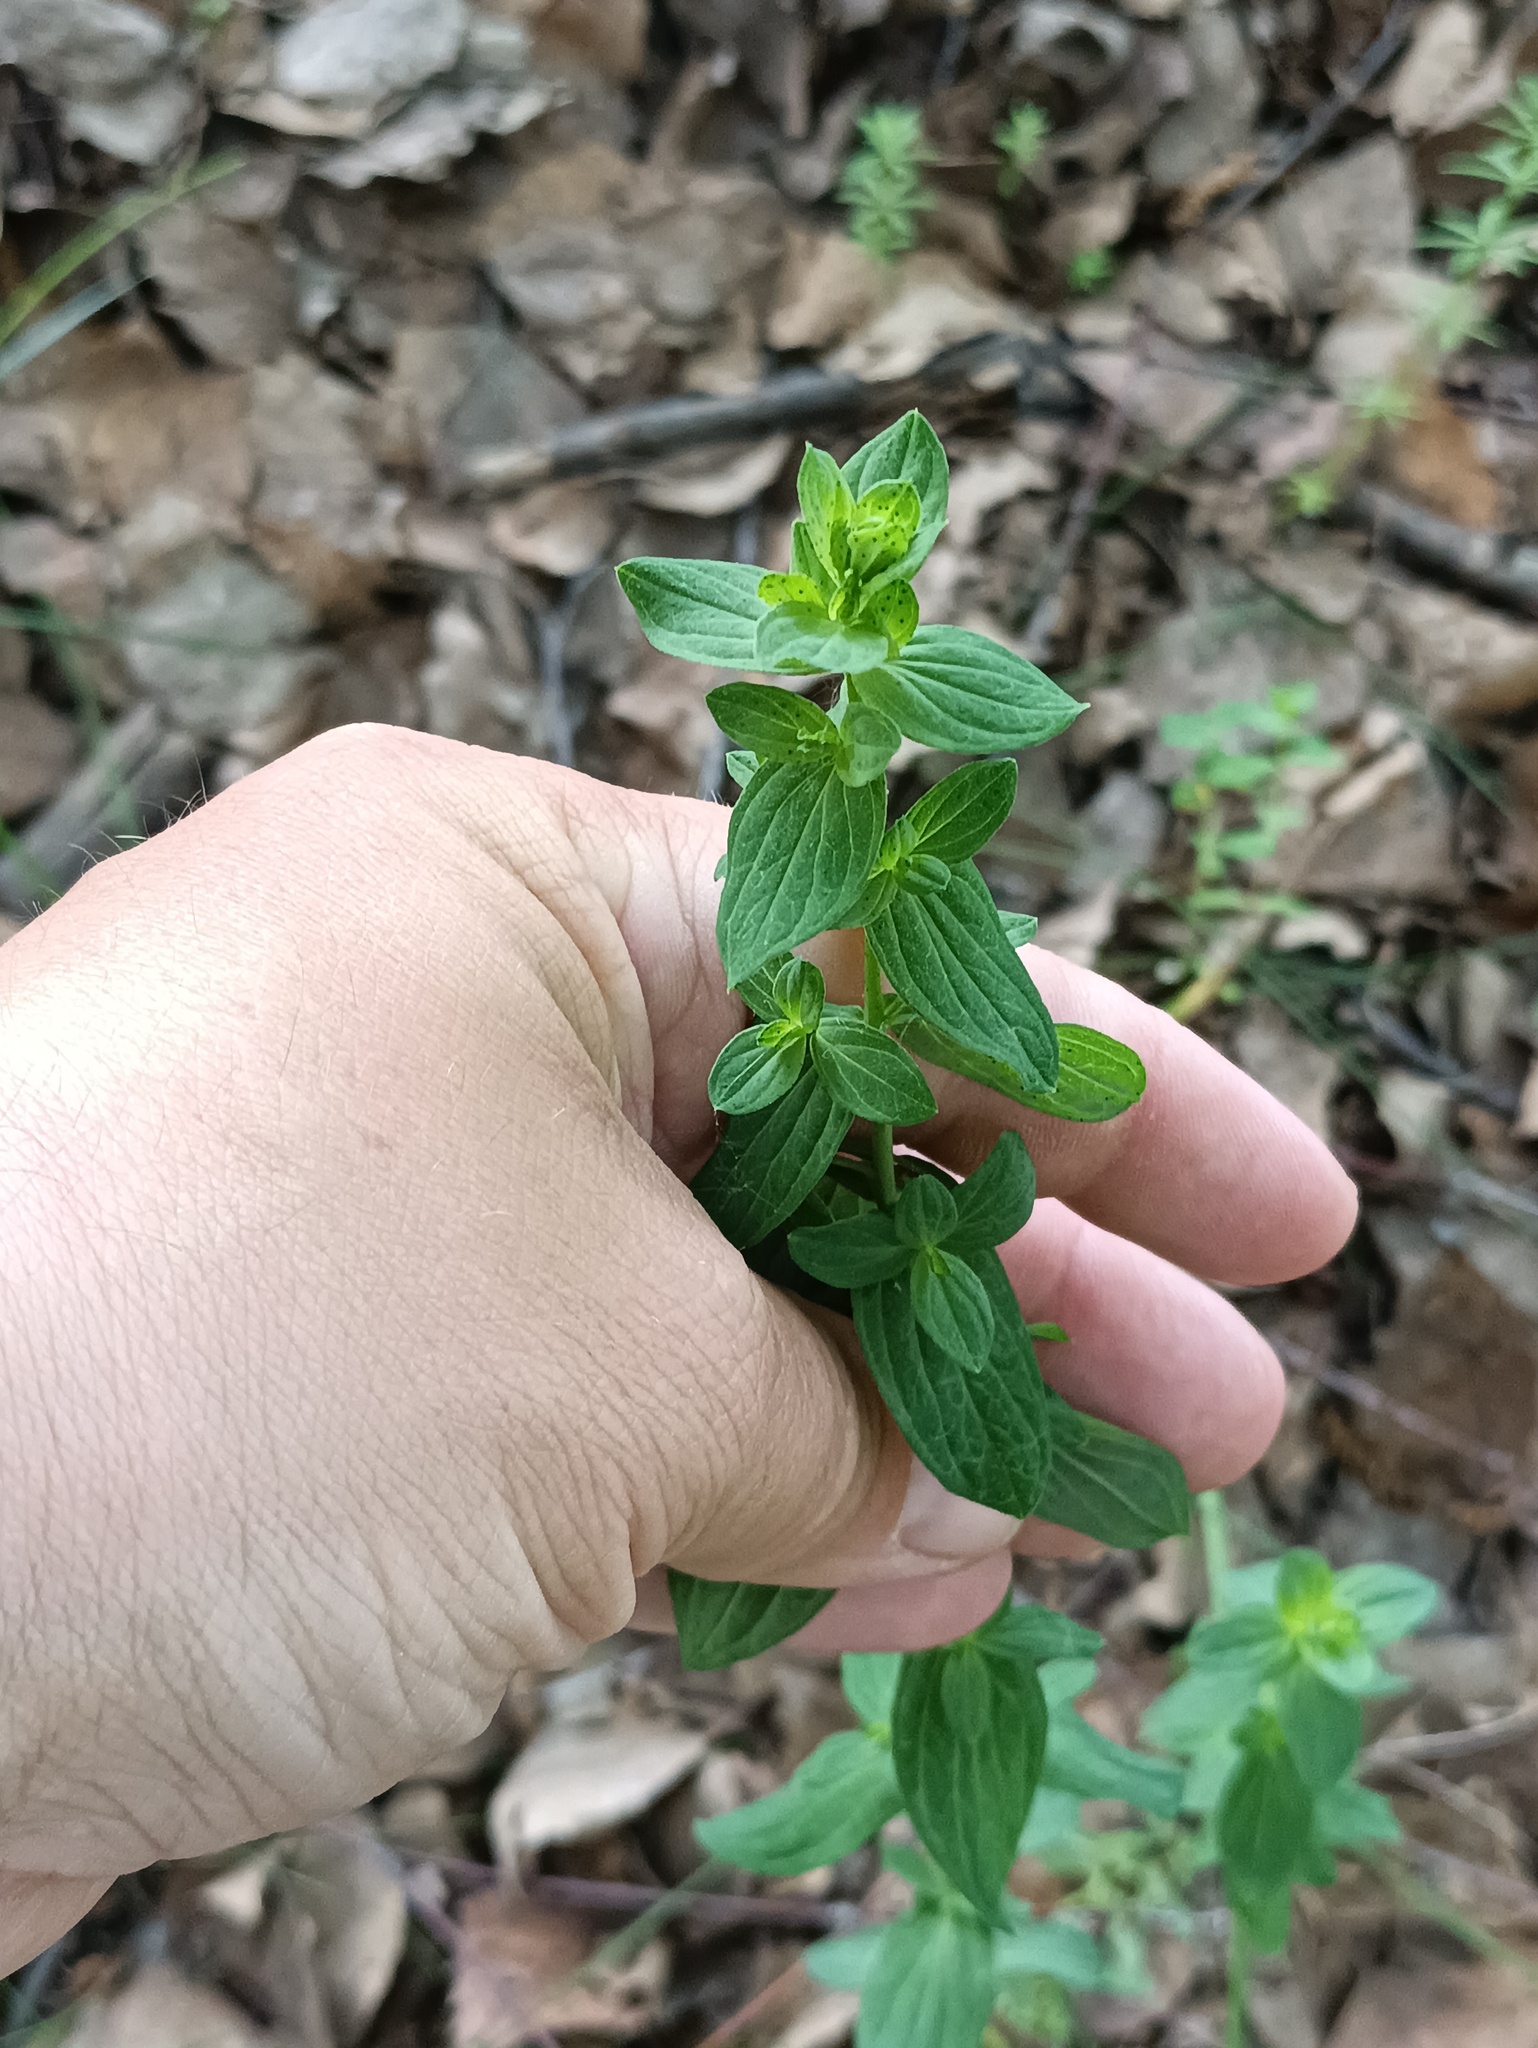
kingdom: Plantae
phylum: Tracheophyta
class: Magnoliopsida
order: Malpighiales
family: Hypericaceae
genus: Hypericum
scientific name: Hypericum perforatum
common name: Common st. johnswort
